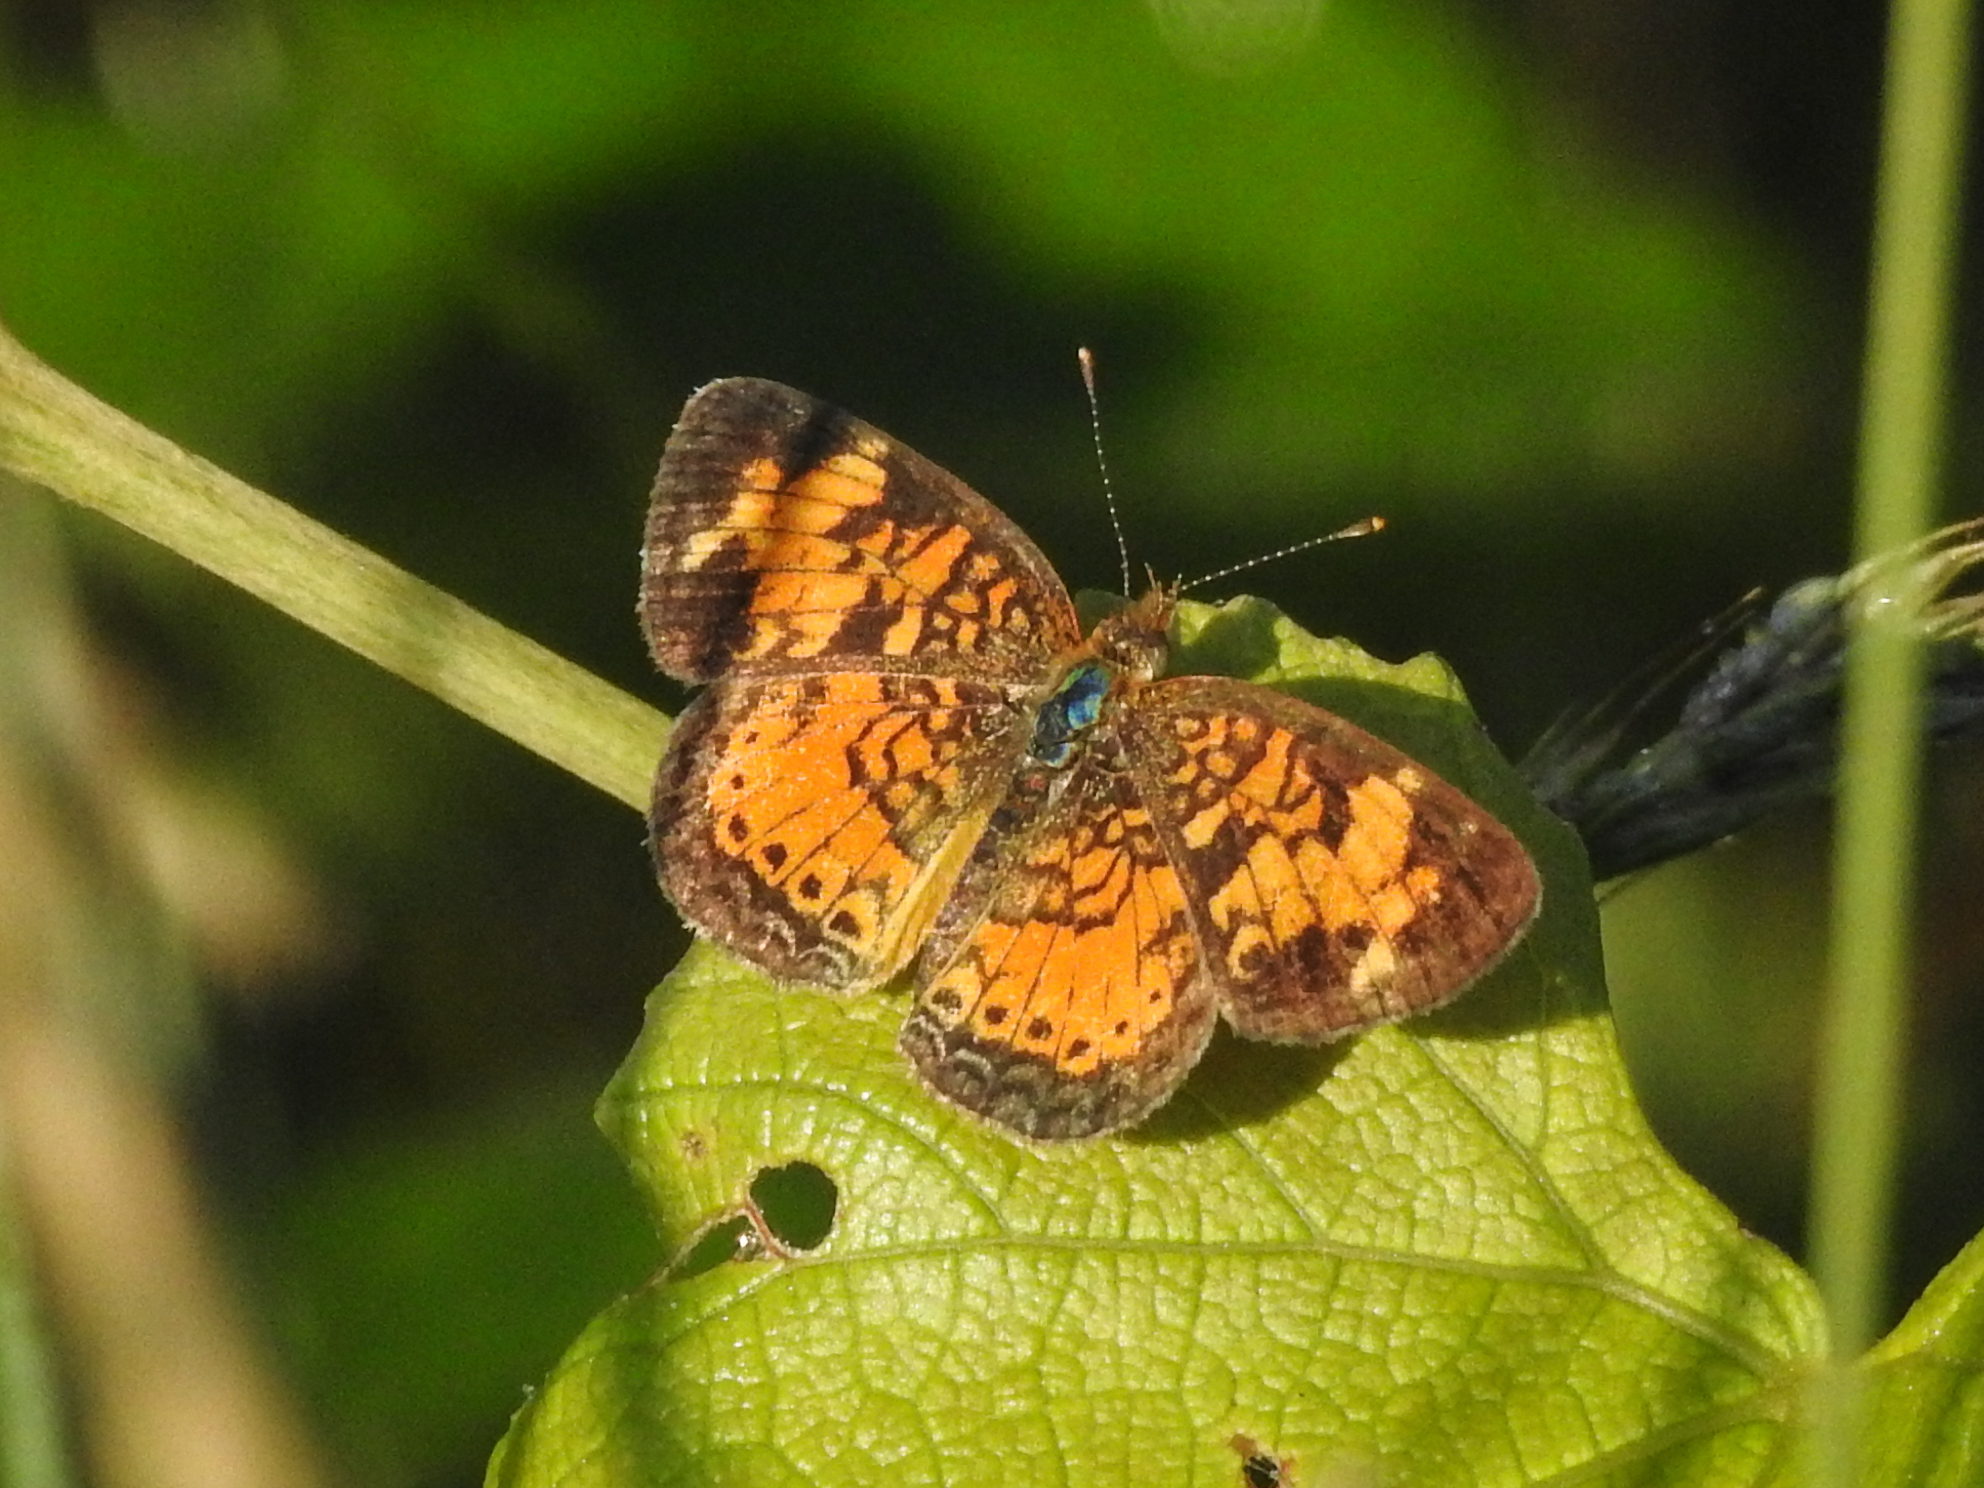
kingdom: Animalia
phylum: Arthropoda
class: Insecta
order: Lepidoptera
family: Nymphalidae
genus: Phyciodes
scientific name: Phyciodes tharos
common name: Pearl crescent
